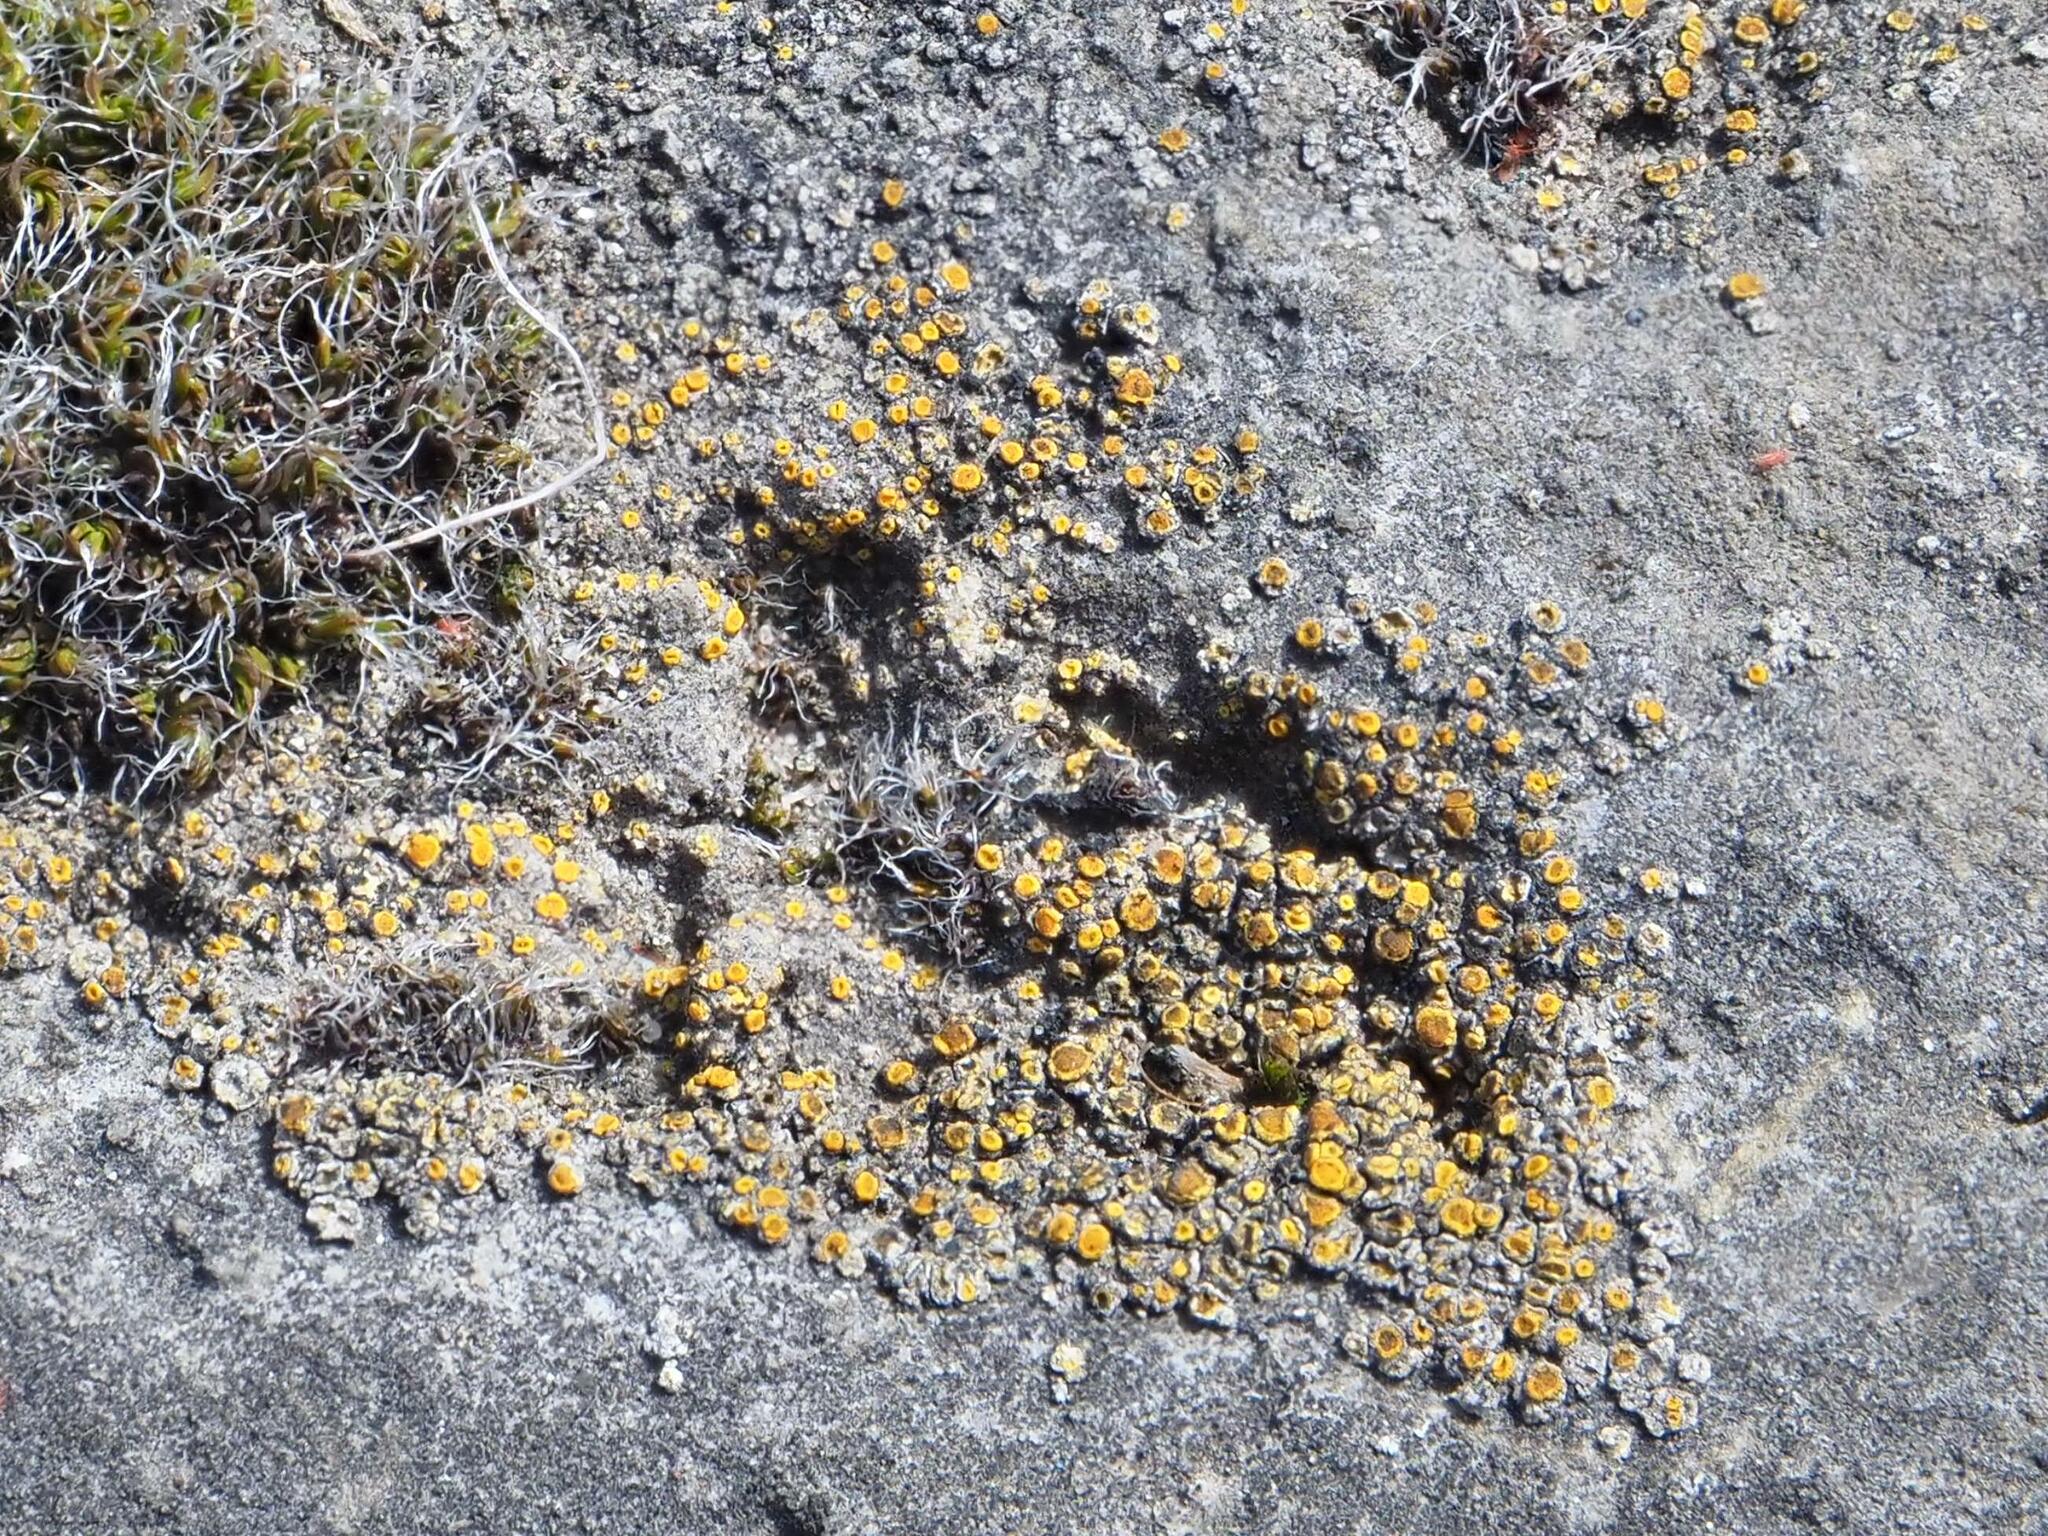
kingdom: Fungi
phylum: Ascomycota
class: Candelariomycetes
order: Candelariales
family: Candelariaceae
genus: Candelariella
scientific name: Candelariella aurella
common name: Hidden goldspeck lichen
